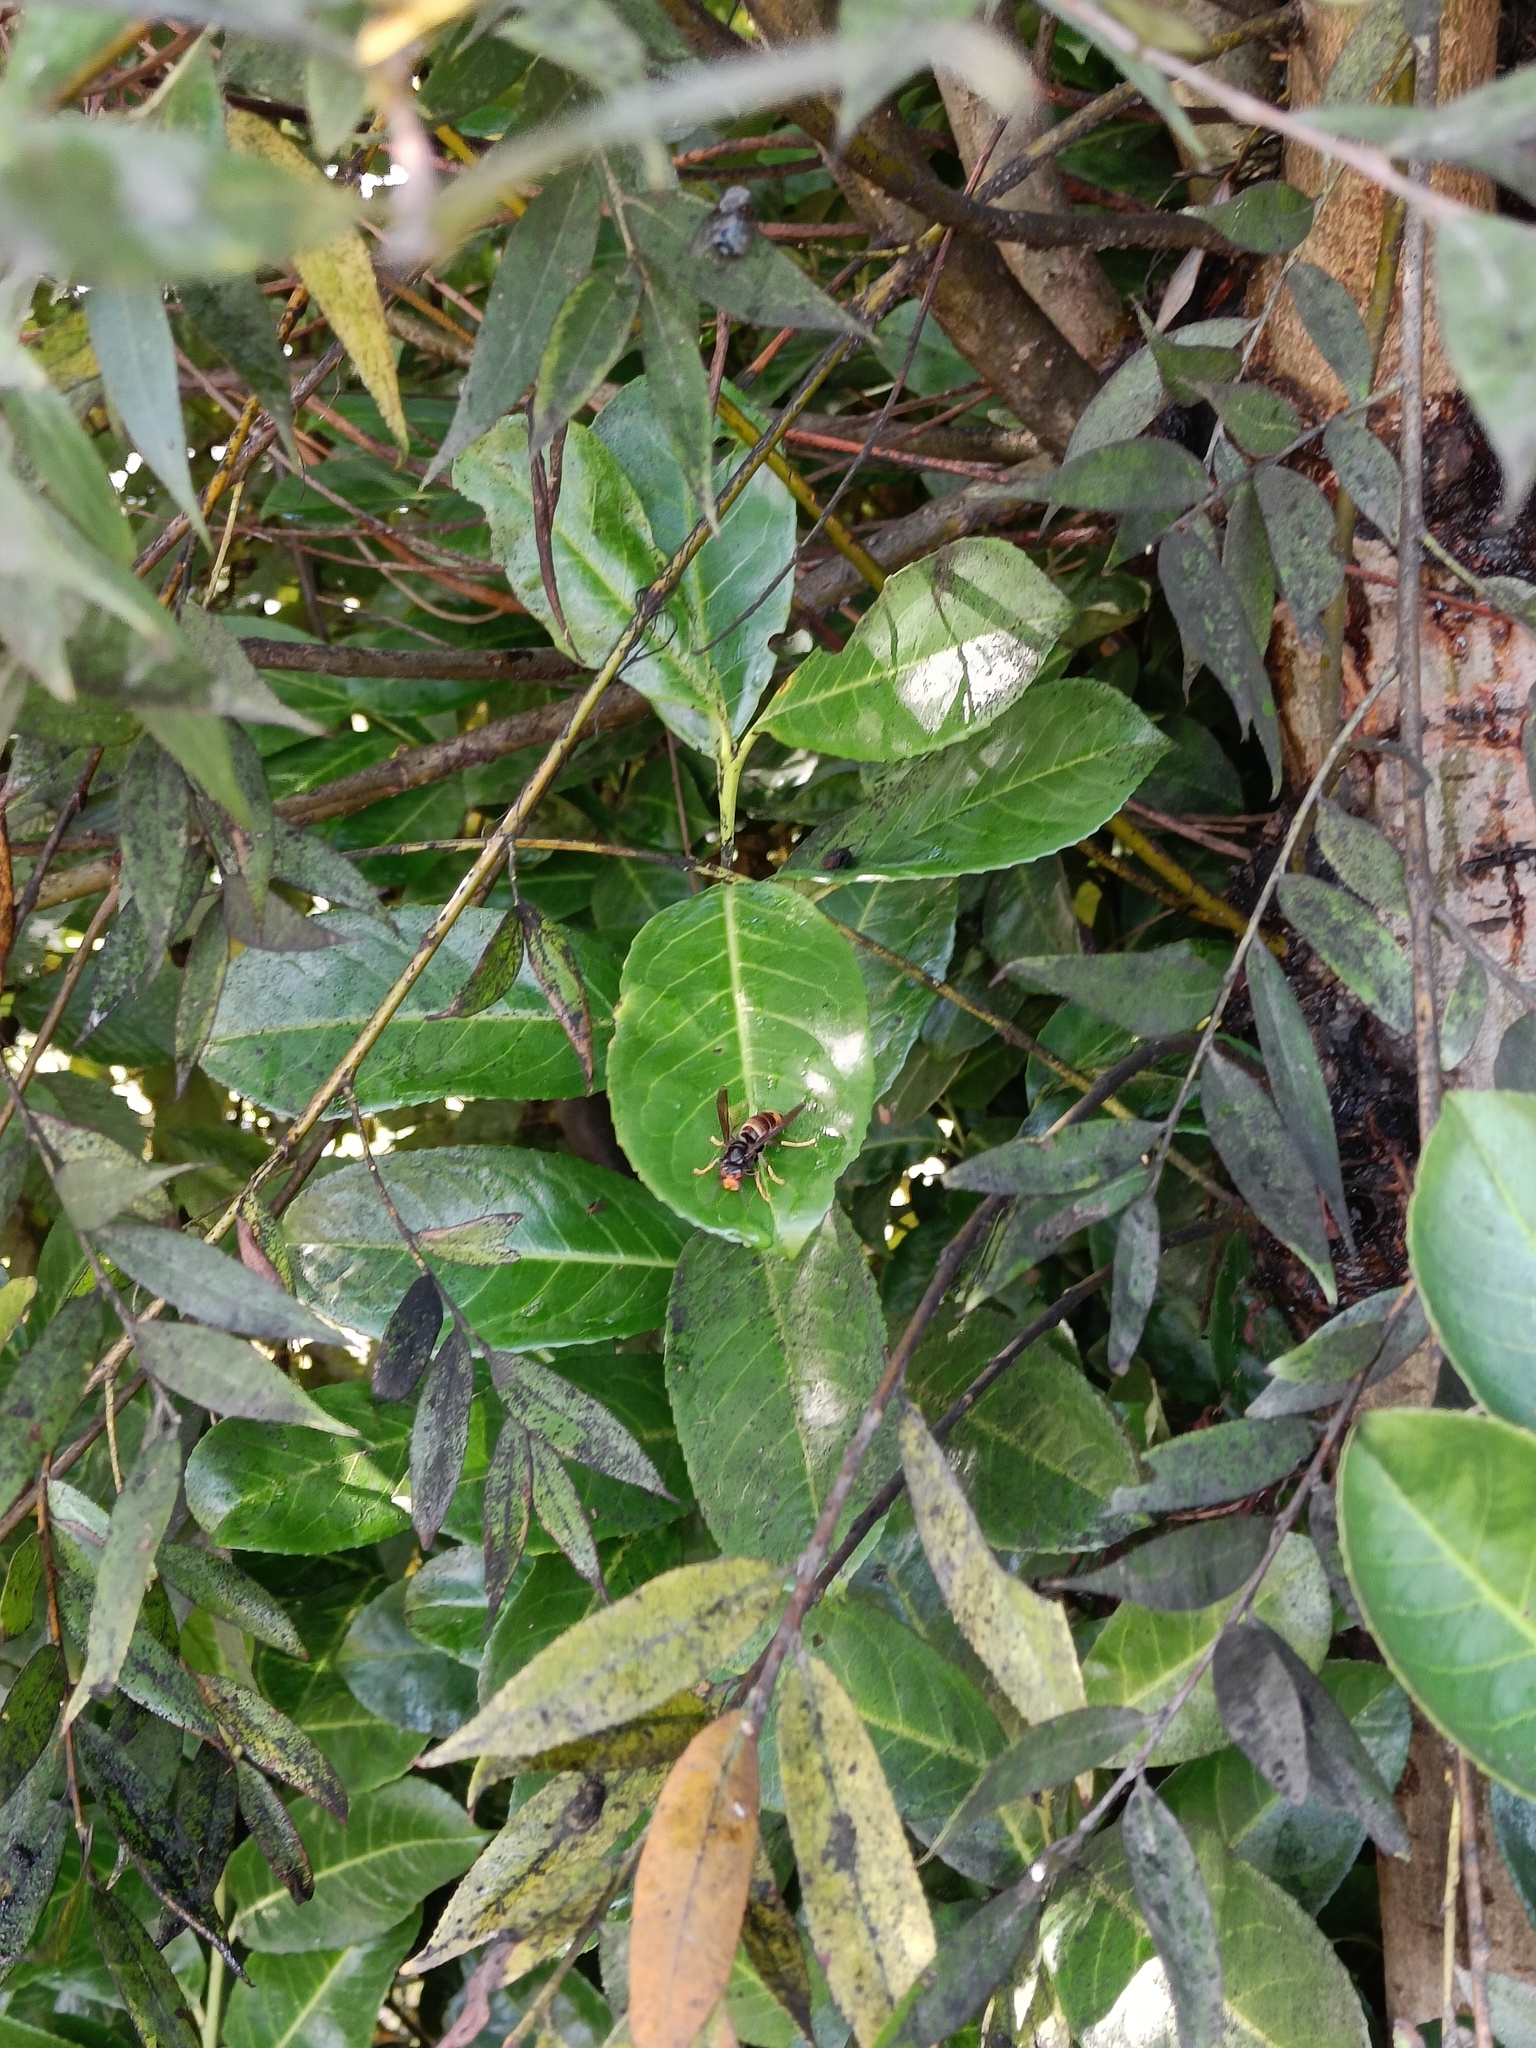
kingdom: Animalia
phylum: Arthropoda
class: Insecta
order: Hymenoptera
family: Vespidae
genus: Vespa
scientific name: Vespa velutina
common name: Asian hornet
